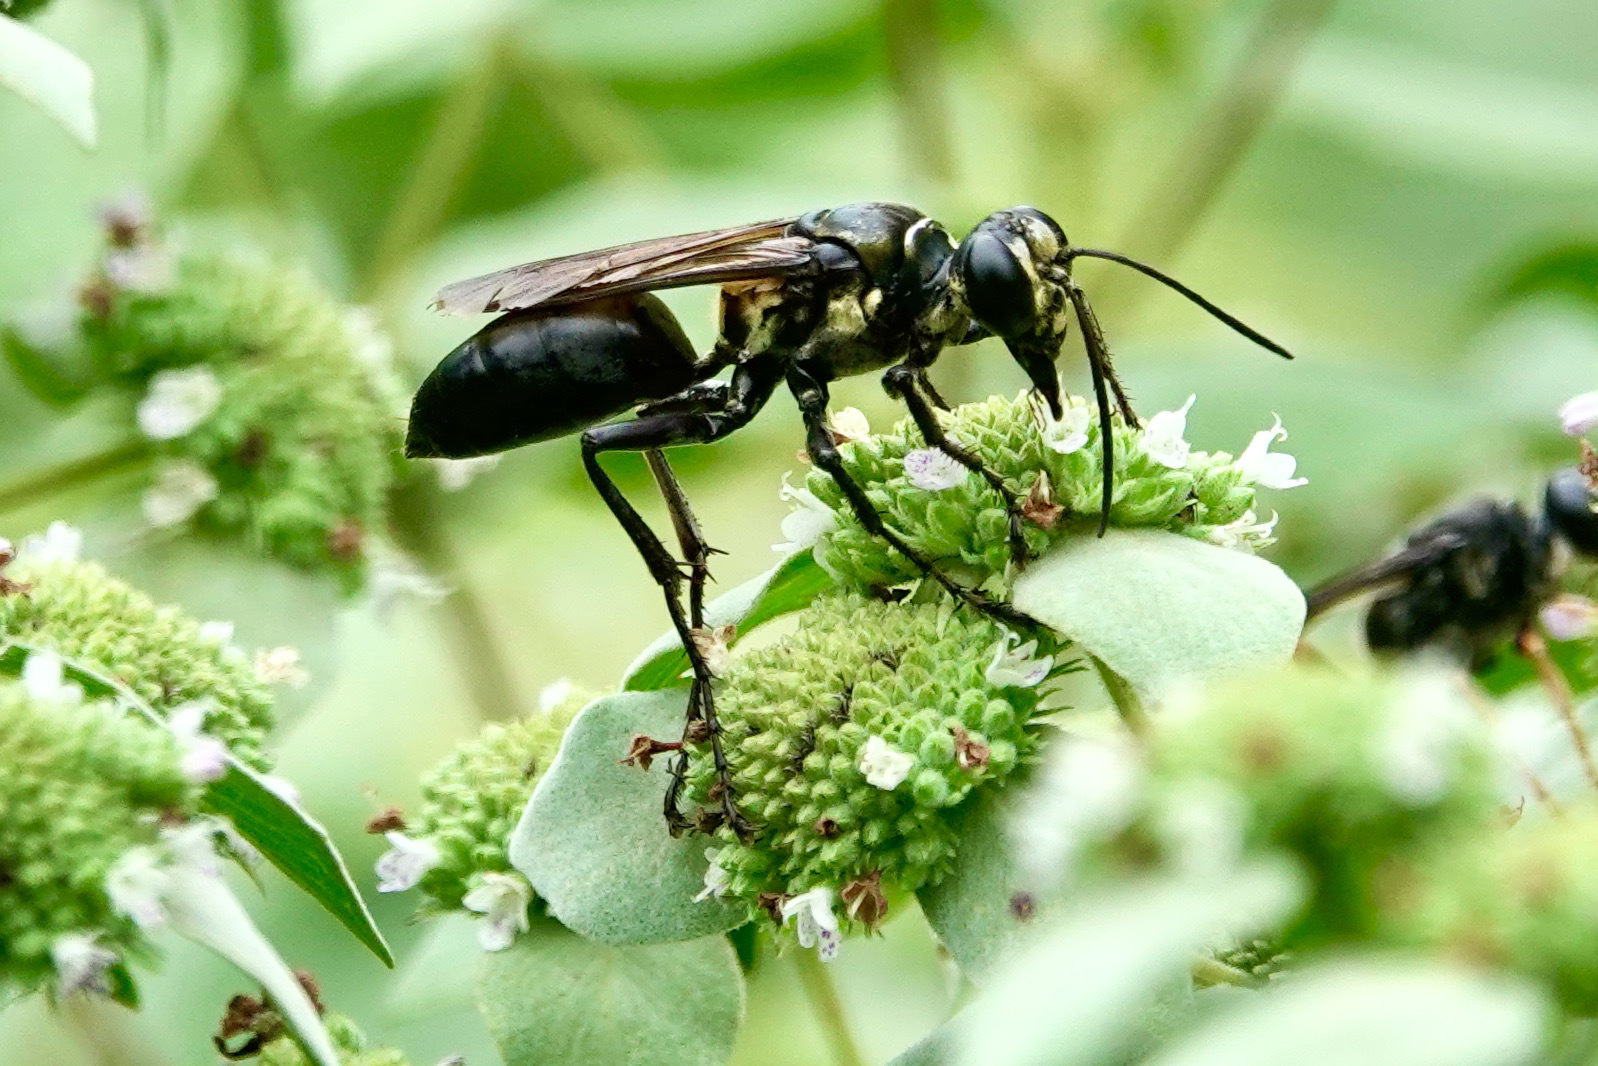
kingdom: Animalia
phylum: Arthropoda
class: Insecta
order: Hymenoptera
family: Sphecidae
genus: Sphex
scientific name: Sphex habenus
